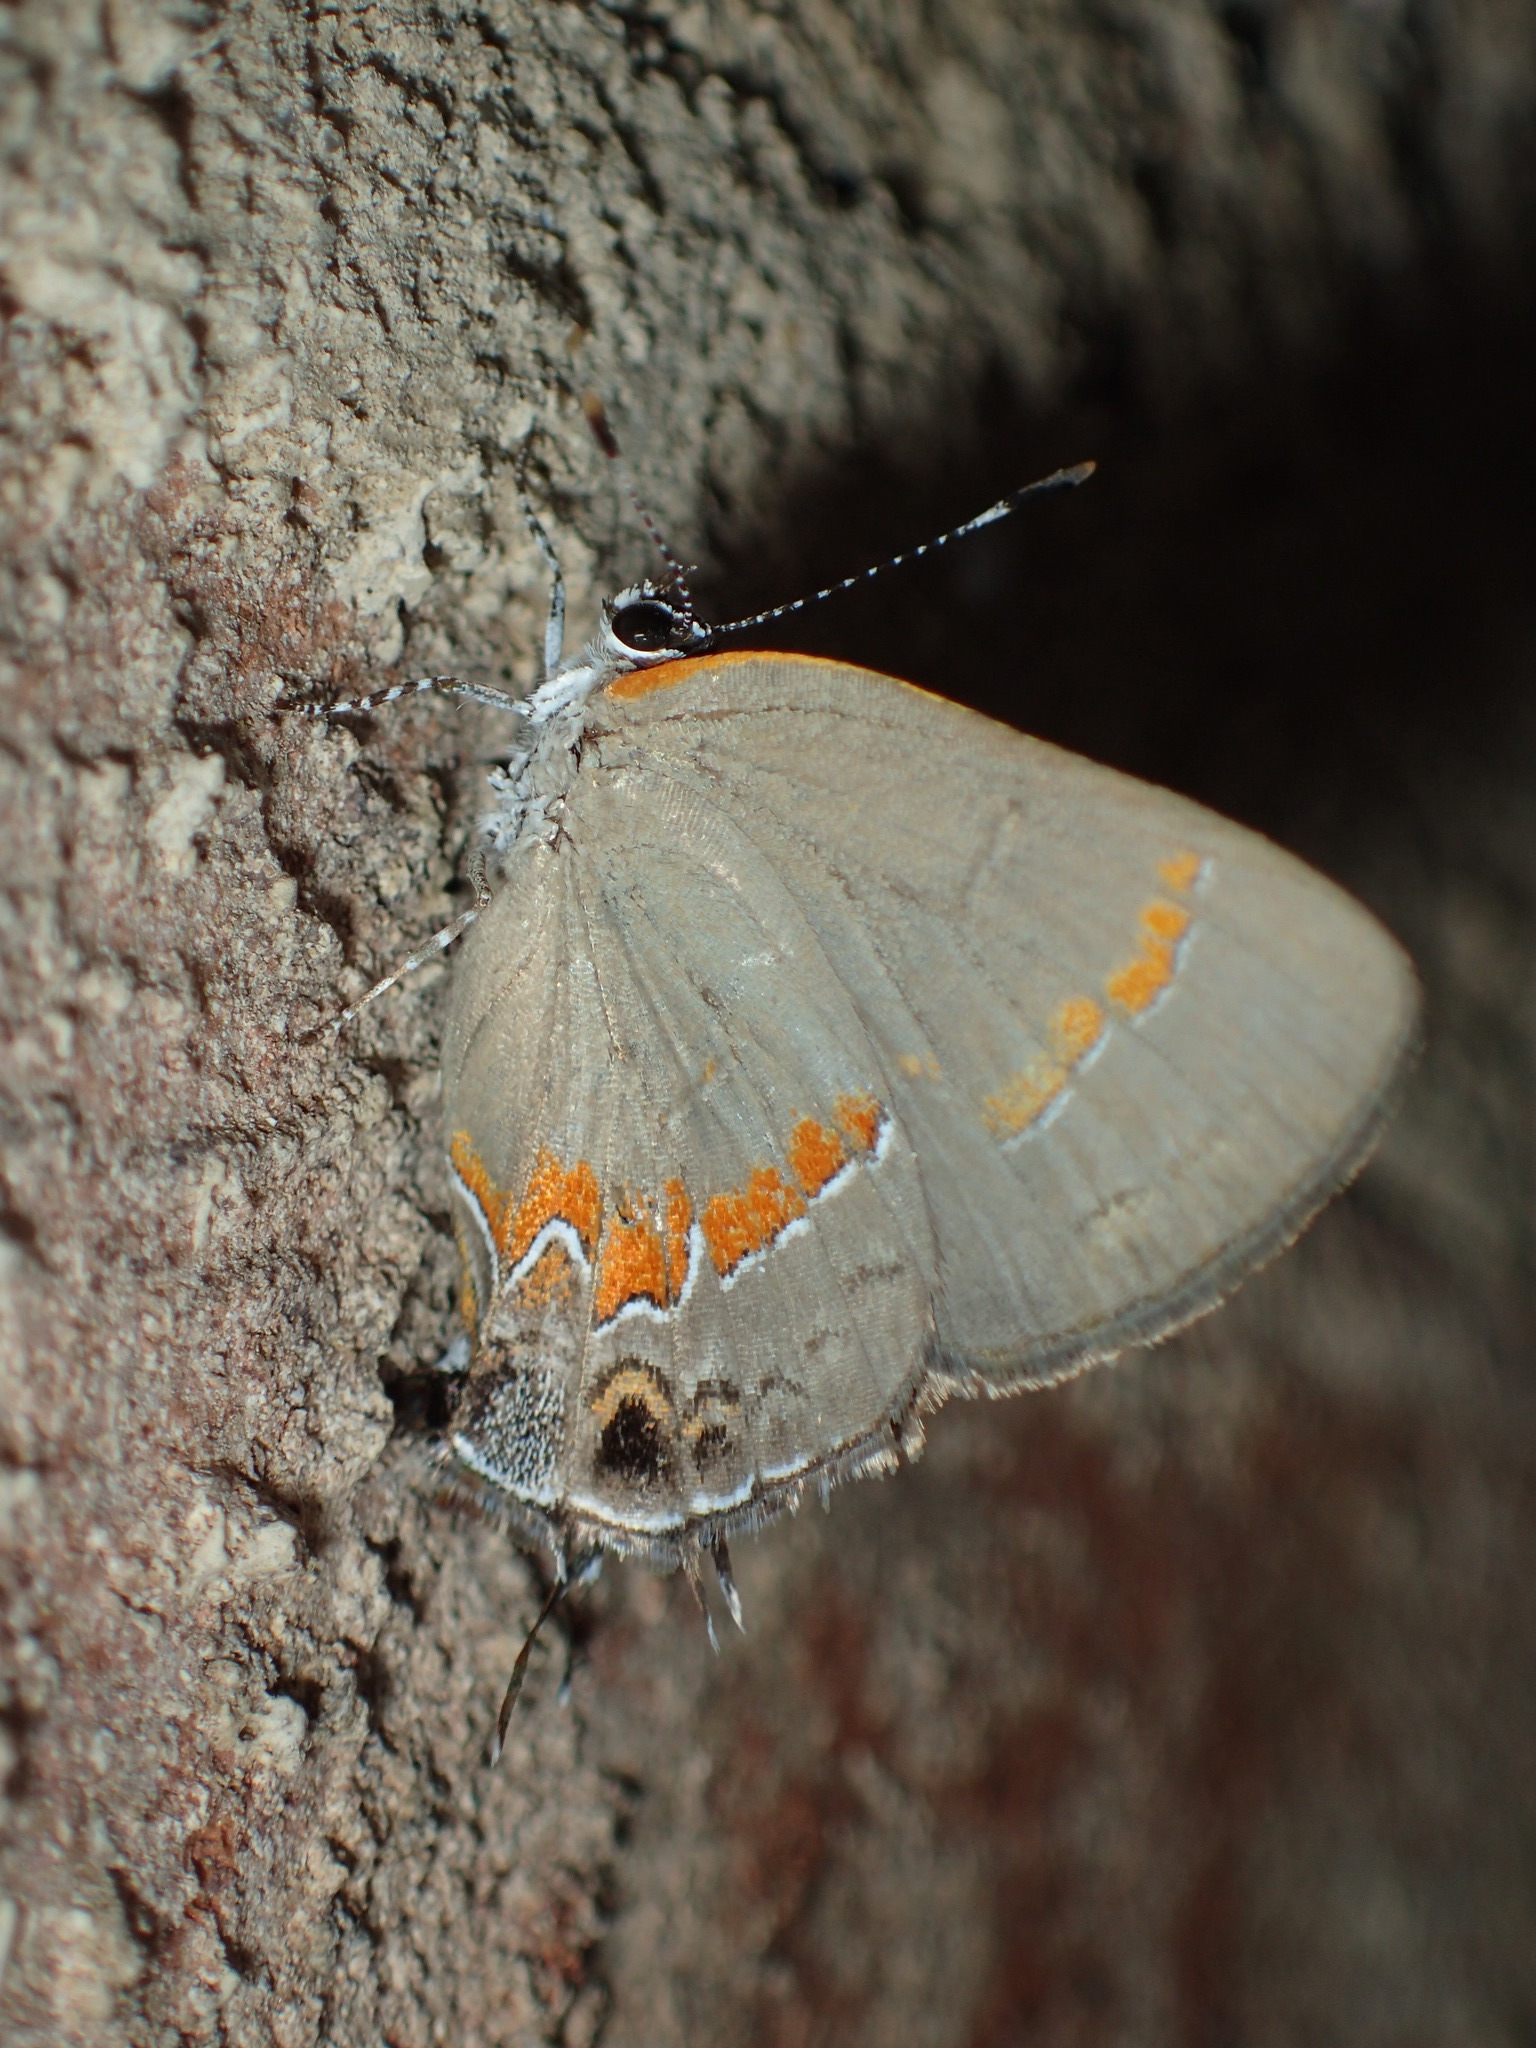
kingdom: Animalia
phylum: Arthropoda
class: Insecta
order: Lepidoptera
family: Lycaenidae
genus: Calycopis
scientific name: Calycopis cecrops
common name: Red-banded hairstreak
